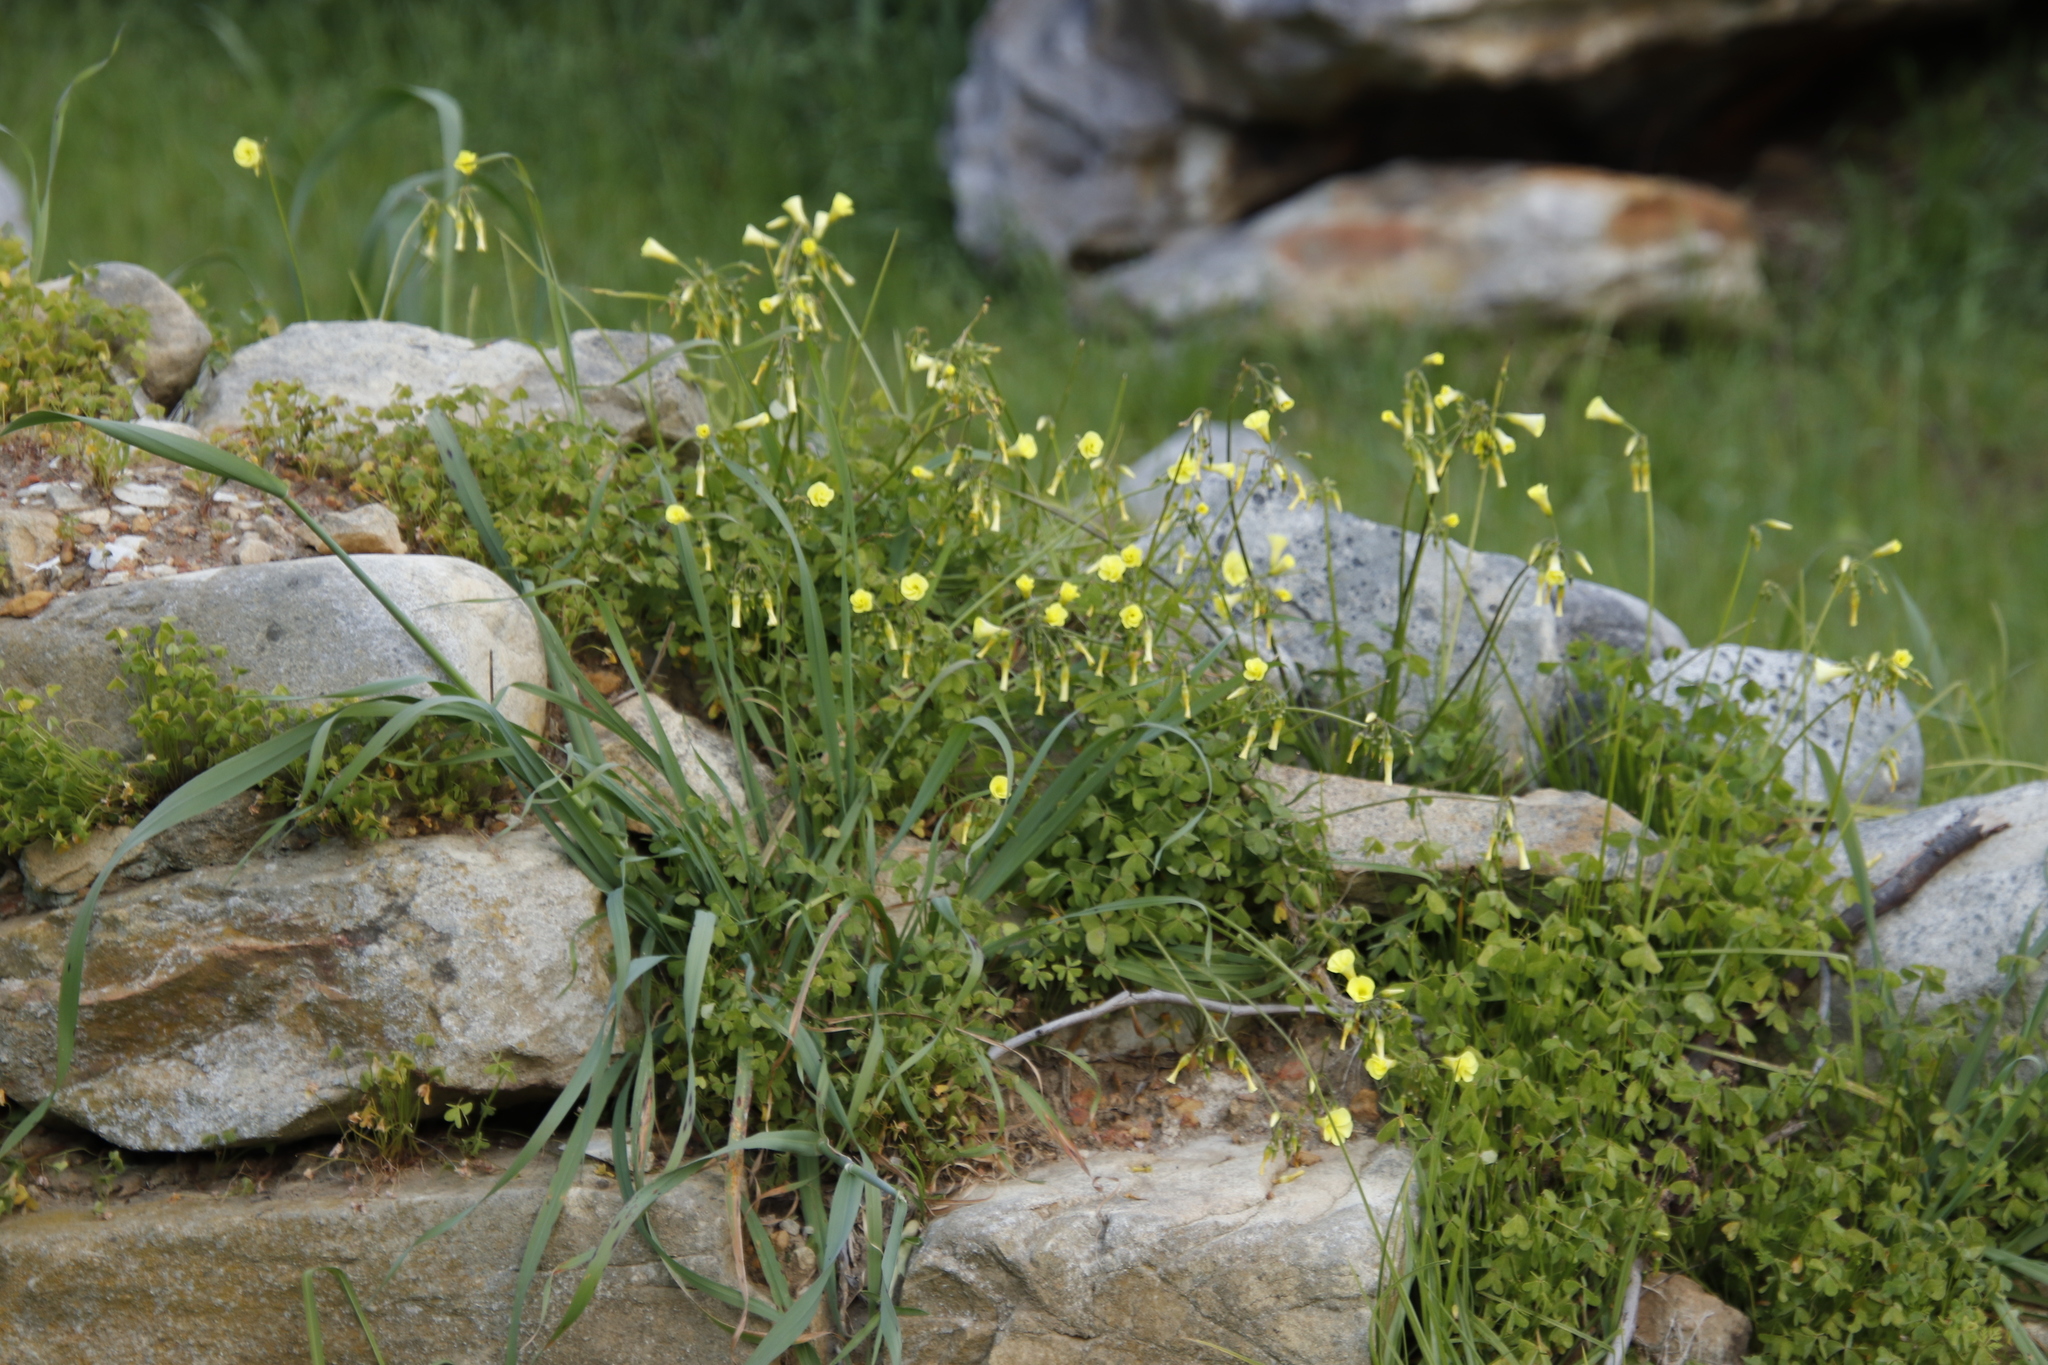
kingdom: Plantae
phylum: Tracheophyta
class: Magnoliopsida
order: Oxalidales
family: Oxalidaceae
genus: Oxalis
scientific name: Oxalis pes-caprae
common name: Bermuda-buttercup
